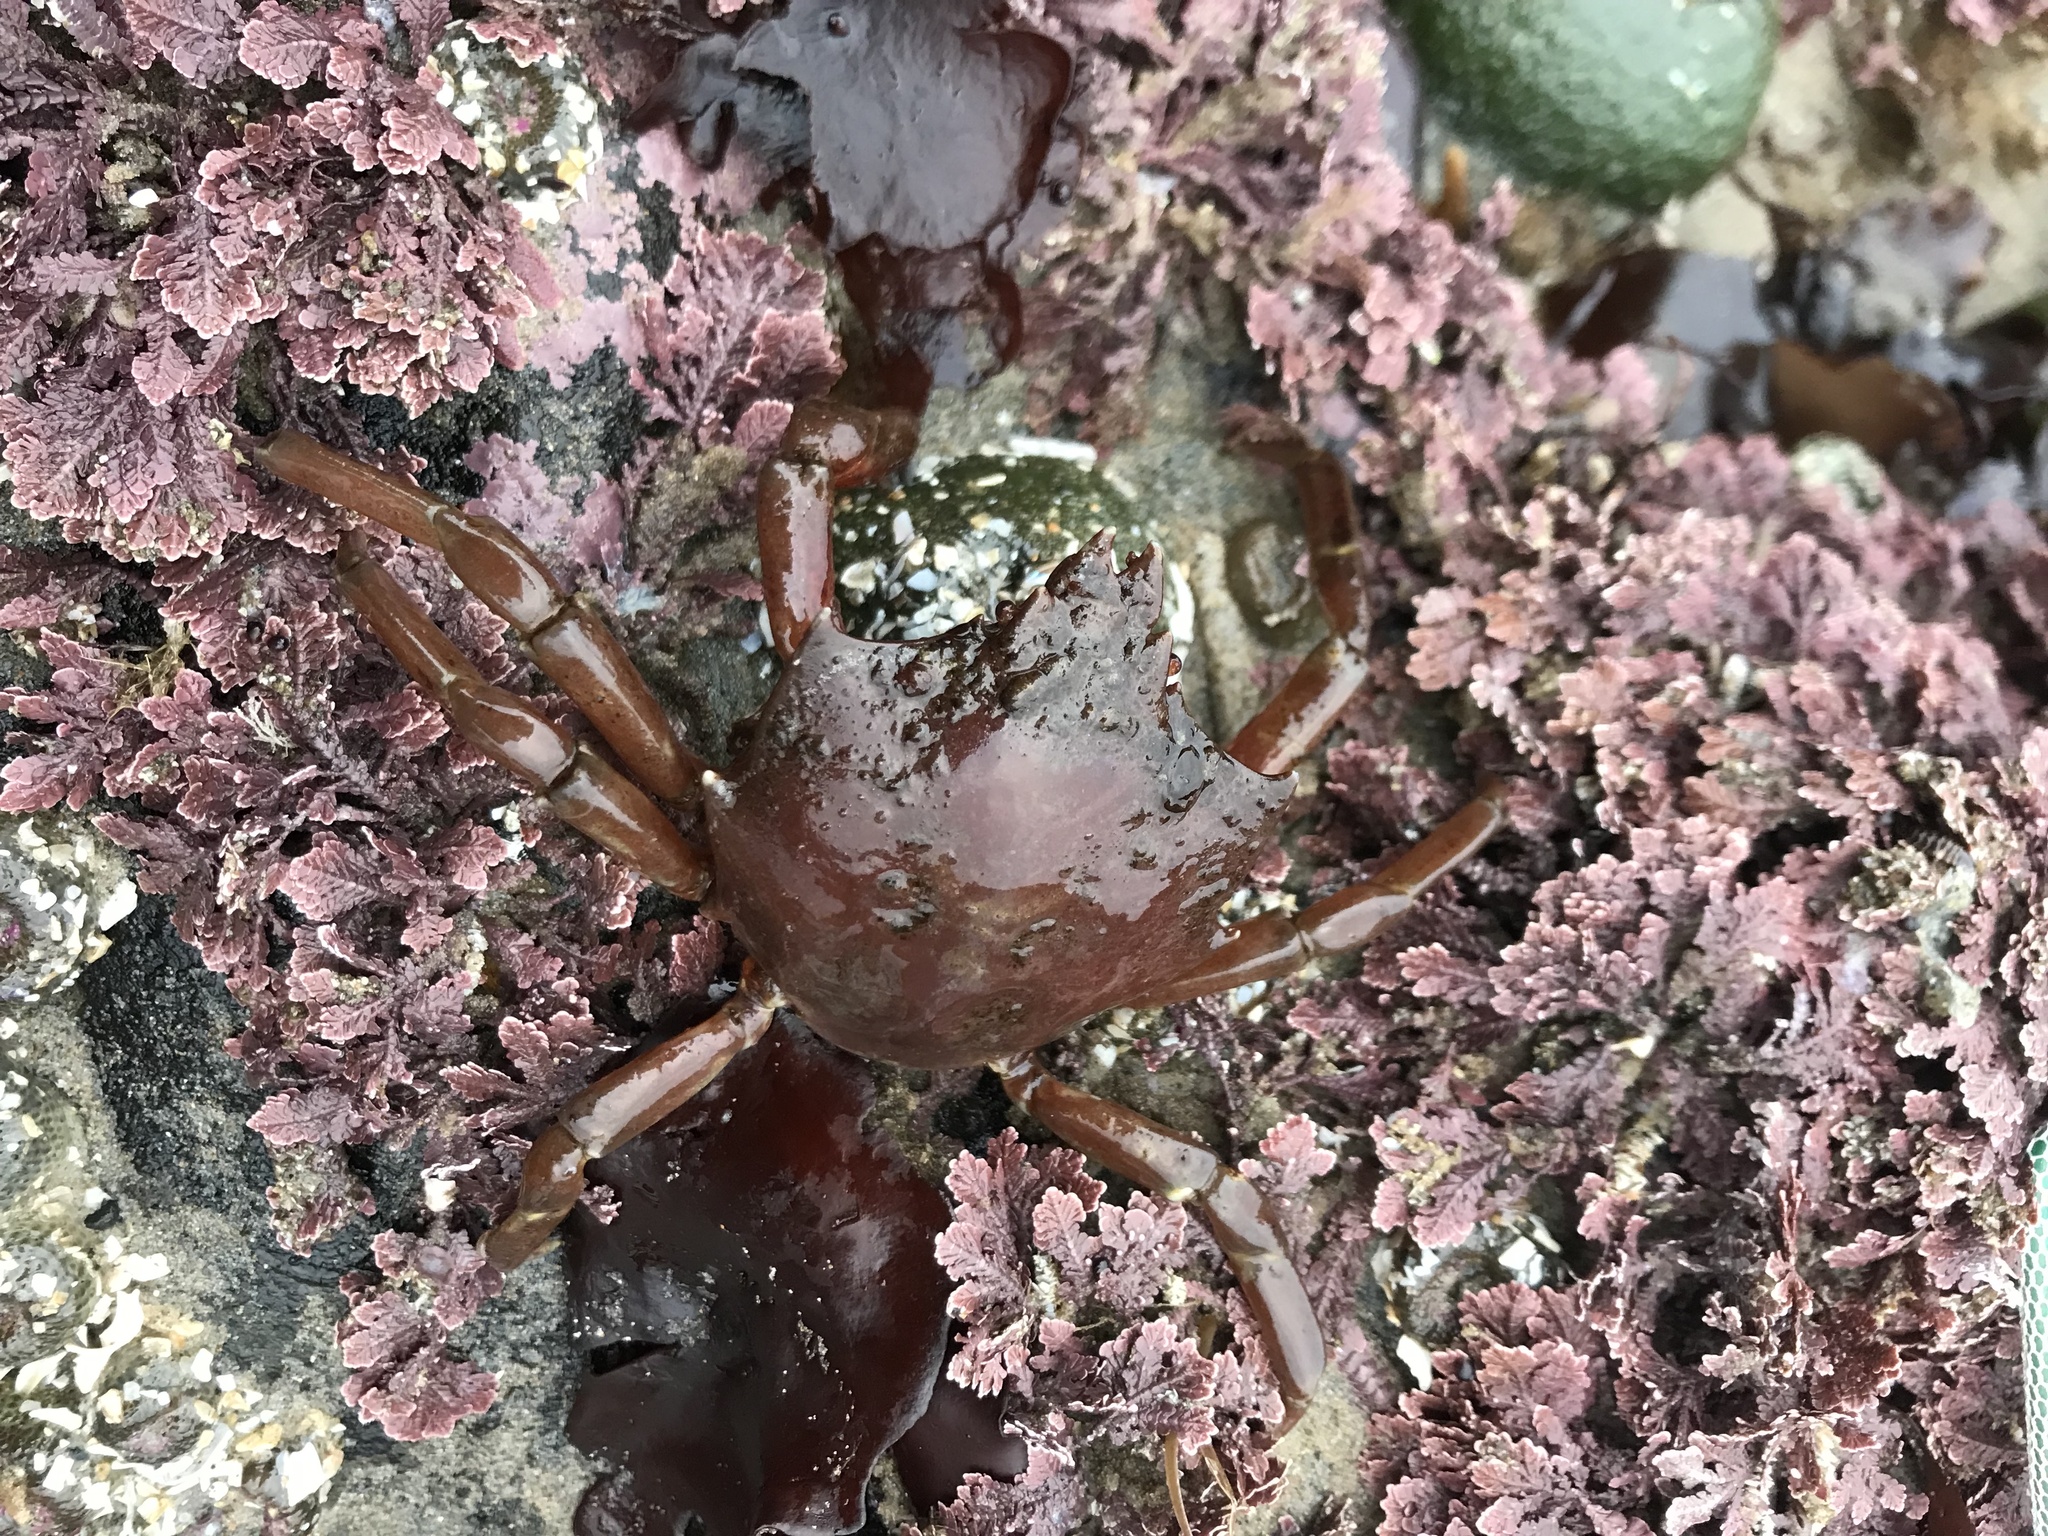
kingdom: Animalia
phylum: Arthropoda
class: Malacostraca
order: Decapoda
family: Epialtidae
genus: Pugettia
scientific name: Pugettia producta
